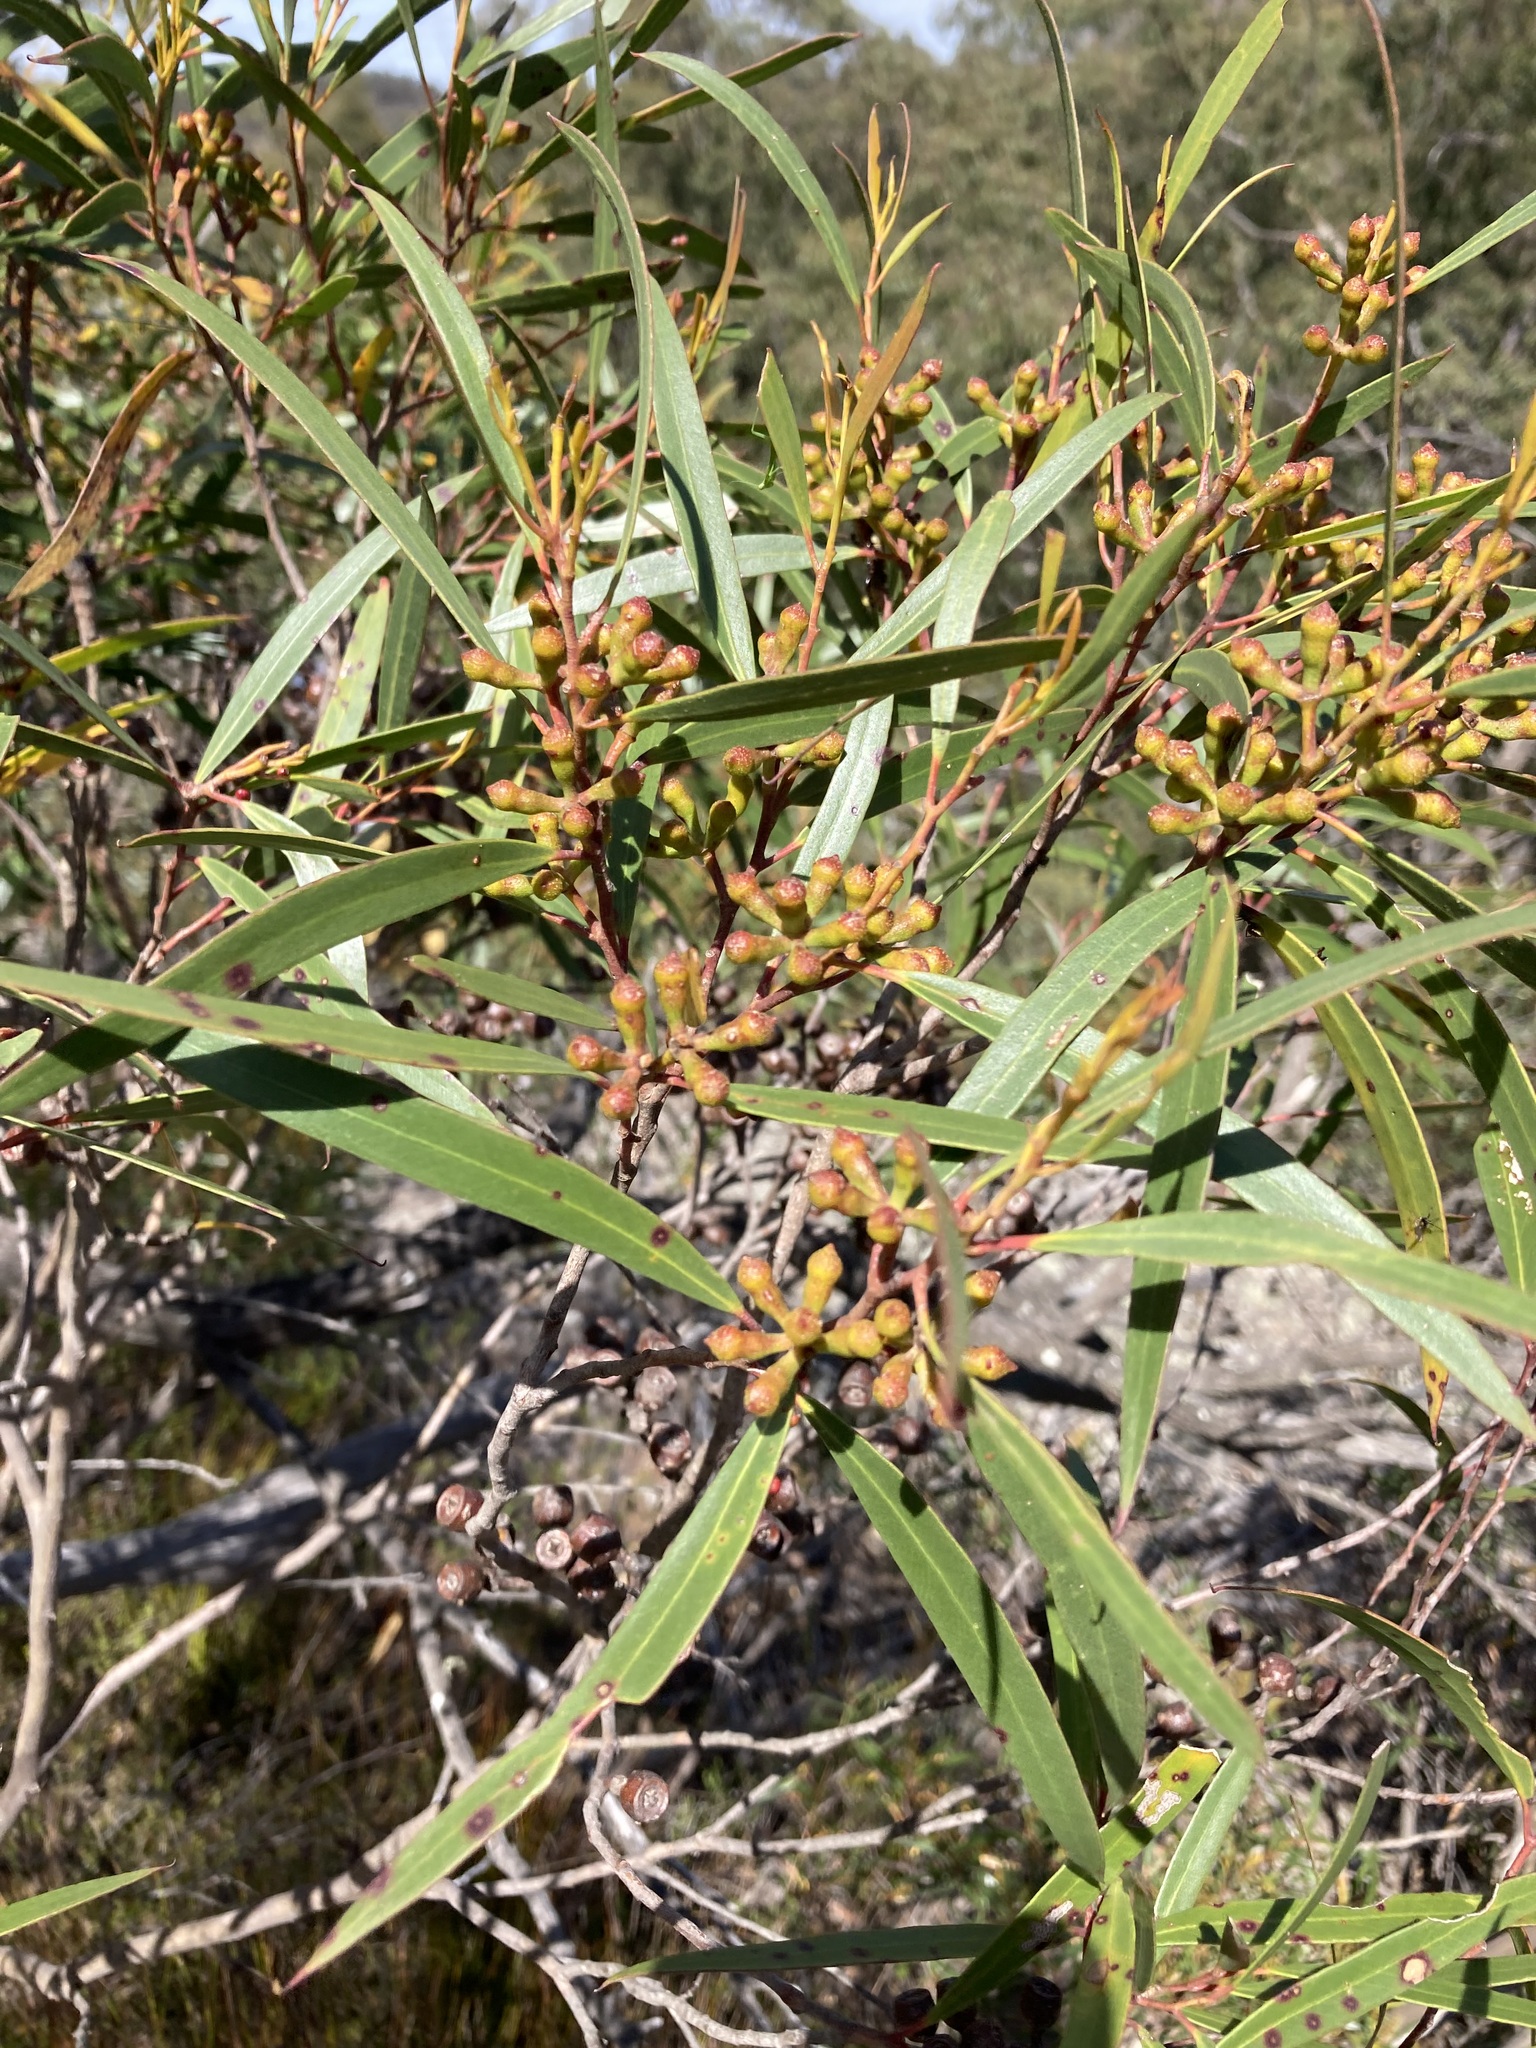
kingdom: Plantae
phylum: Tracheophyta
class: Magnoliopsida
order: Myrtales
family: Myrtaceae
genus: Eucalyptus
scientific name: Eucalyptus stricta
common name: Blue-mountain-malle-ash
